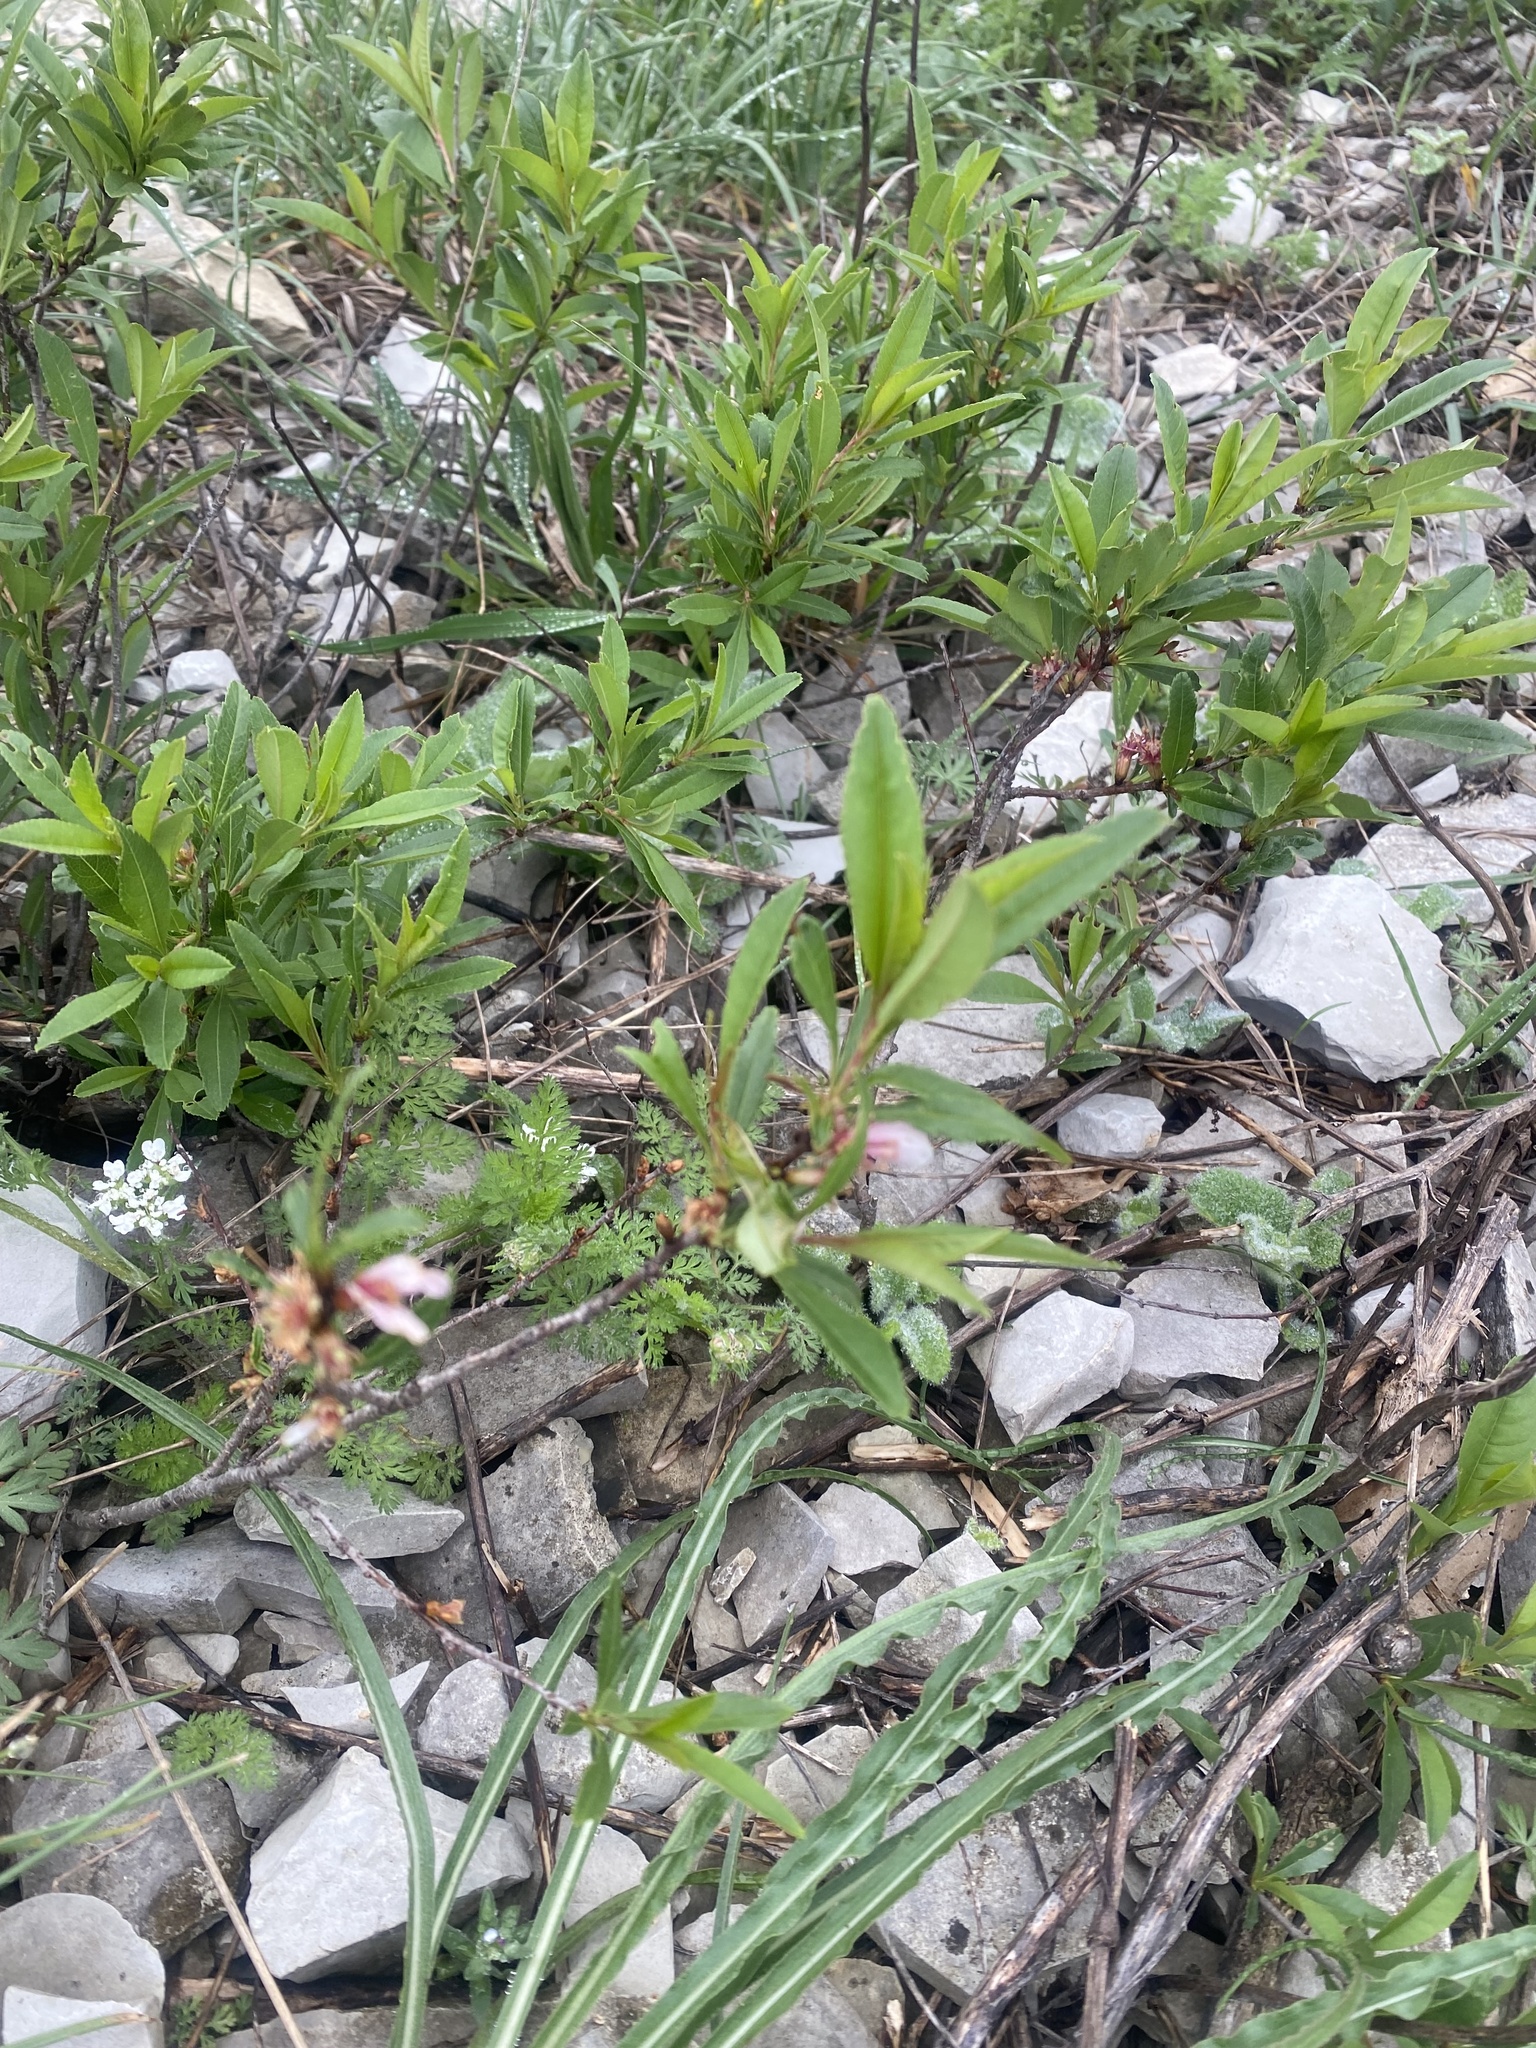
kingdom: Plantae
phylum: Tracheophyta
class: Magnoliopsida
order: Rosales
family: Rosaceae
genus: Prunus
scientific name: Prunus tenella
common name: Dwarf russian almond
